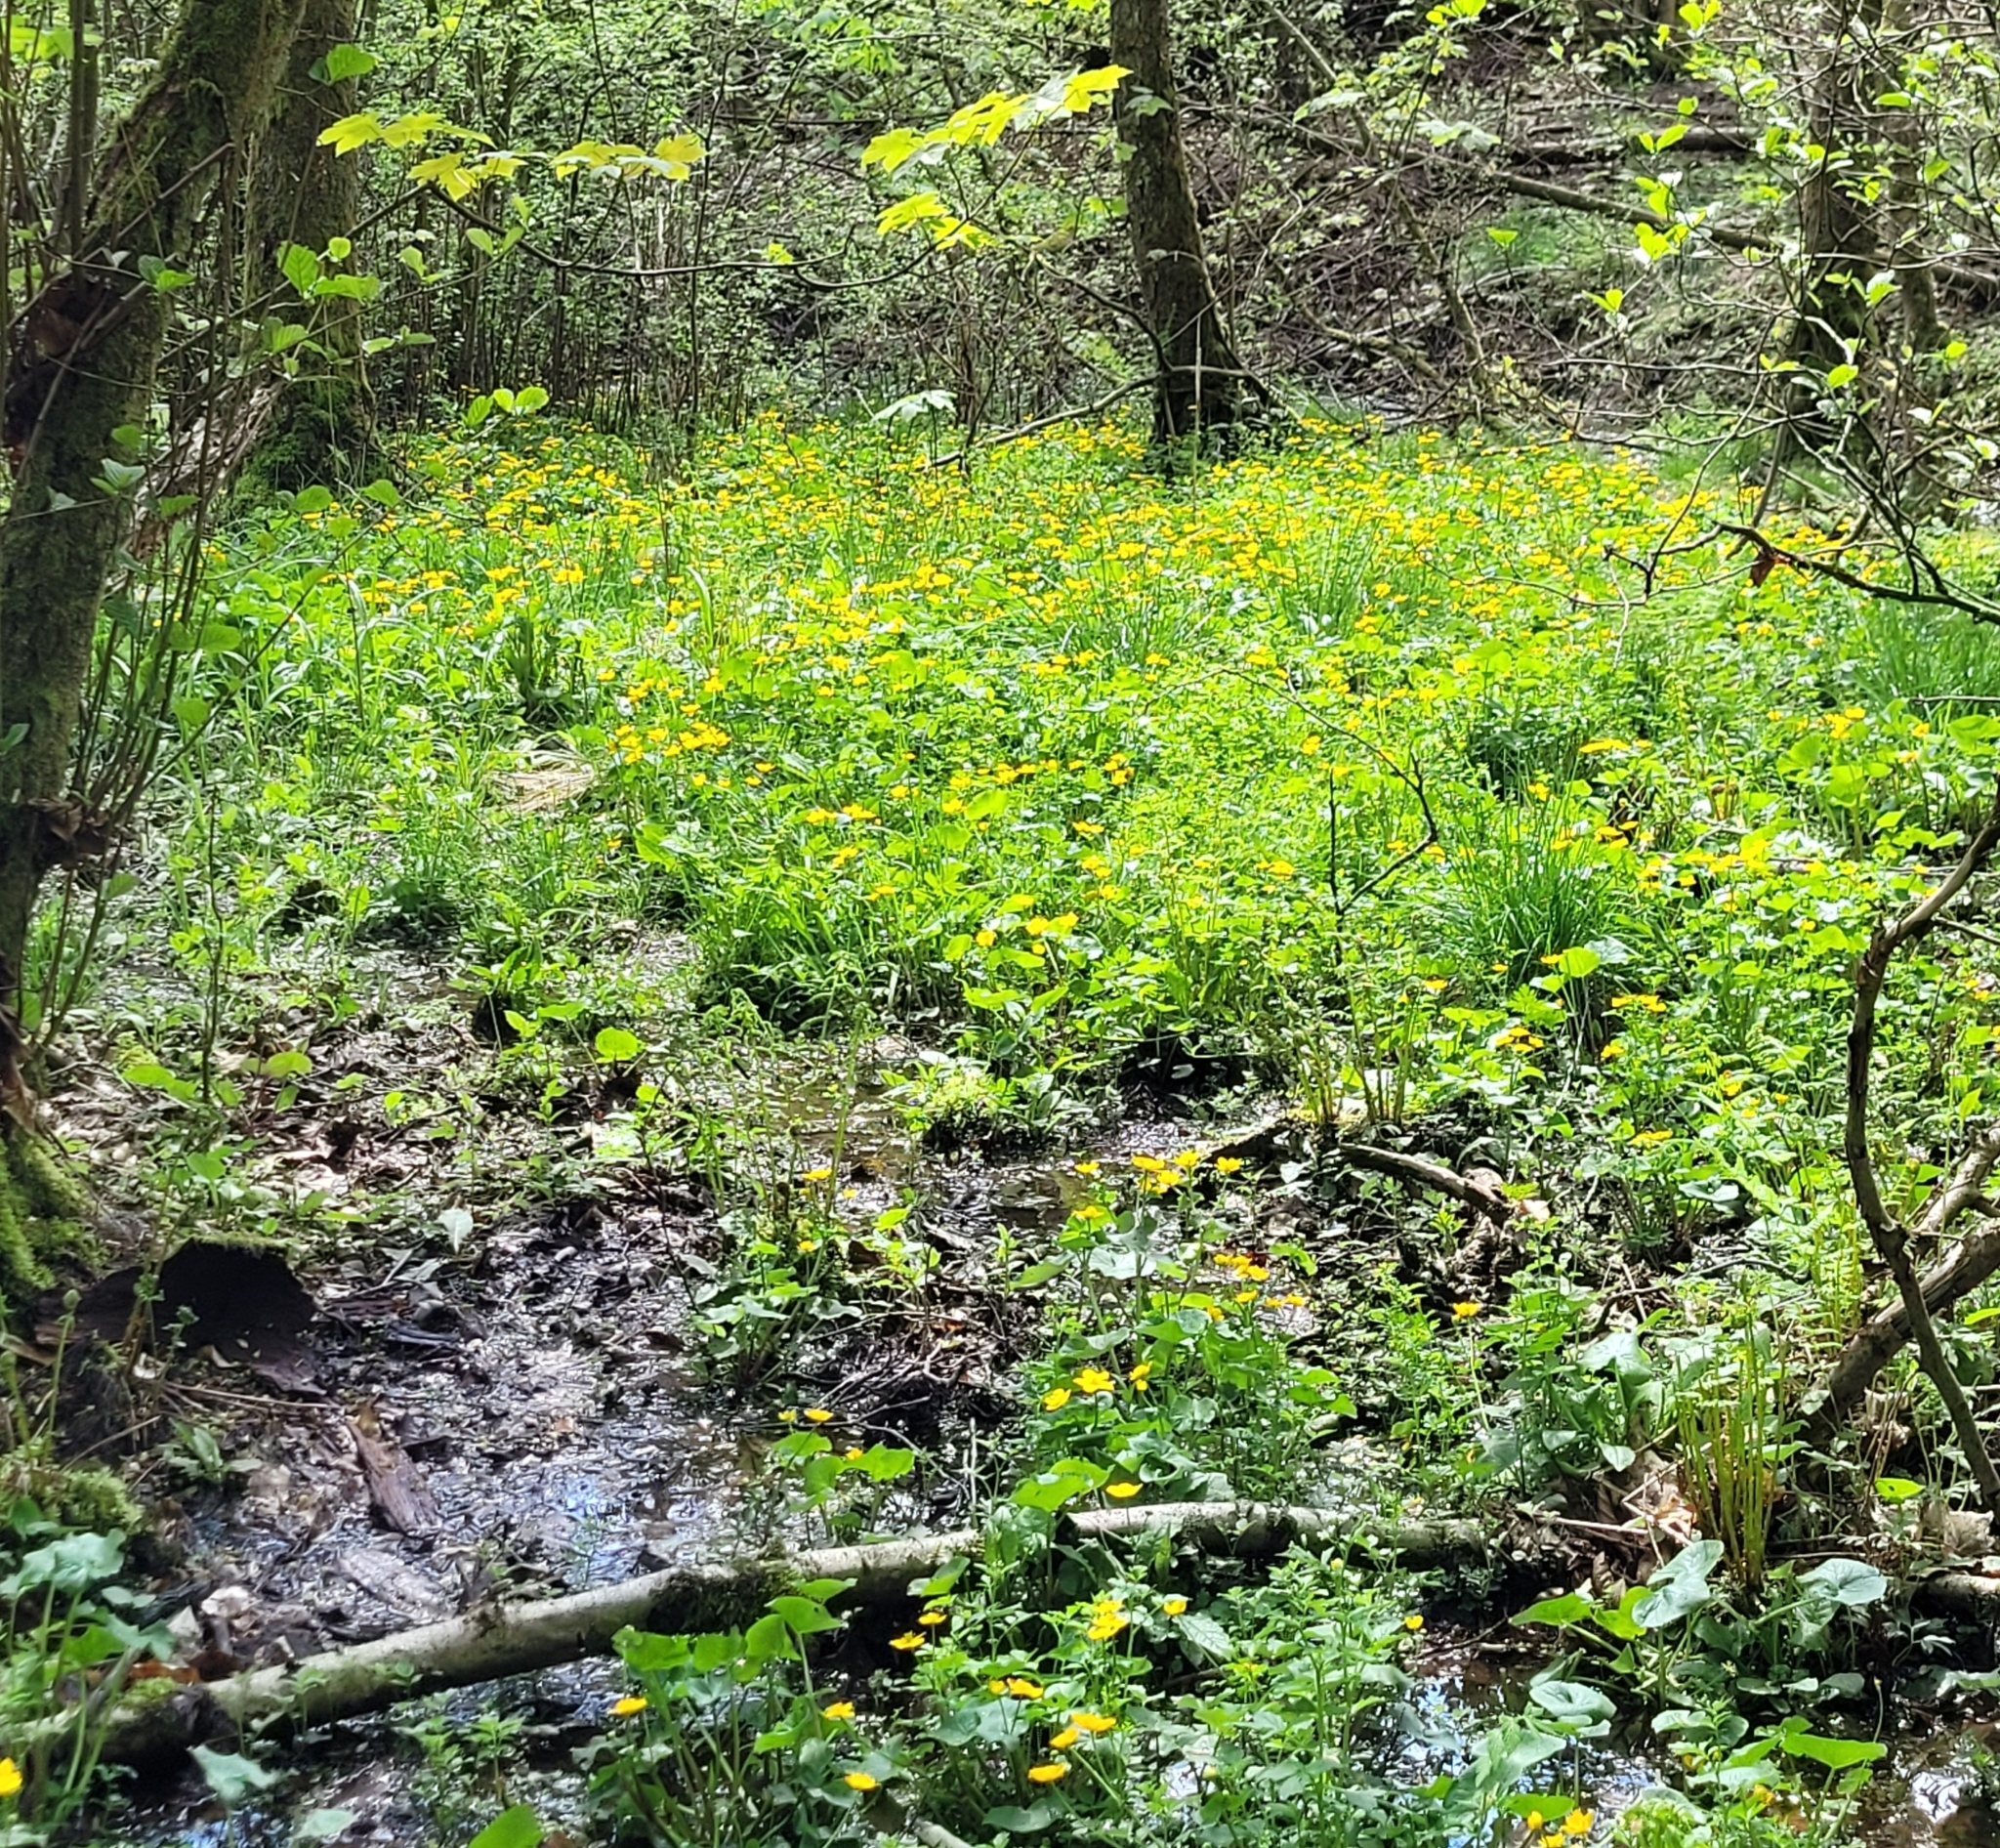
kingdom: Plantae
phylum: Tracheophyta
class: Magnoliopsida
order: Ranunculales
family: Ranunculaceae
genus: Caltha
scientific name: Caltha palustris
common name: Marsh marigold
